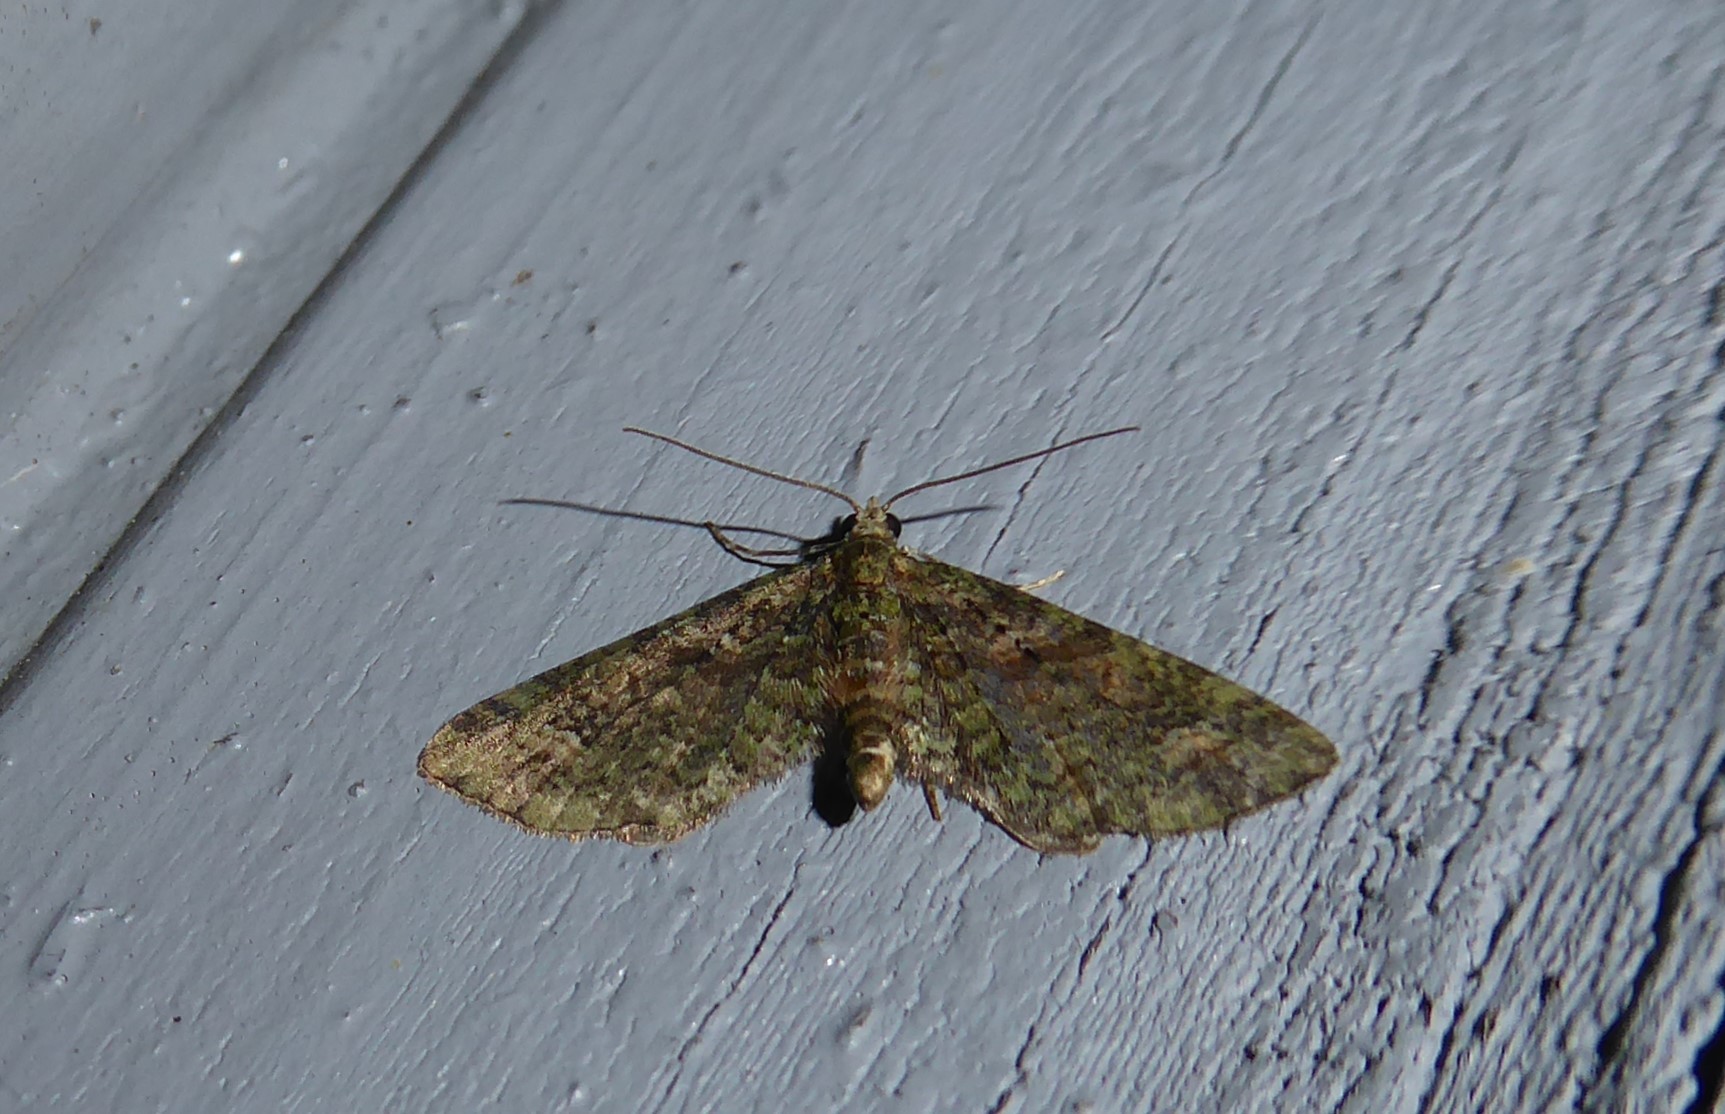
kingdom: Animalia
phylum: Arthropoda
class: Insecta
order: Lepidoptera
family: Geometridae
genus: Idaea
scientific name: Idaea mutanda
